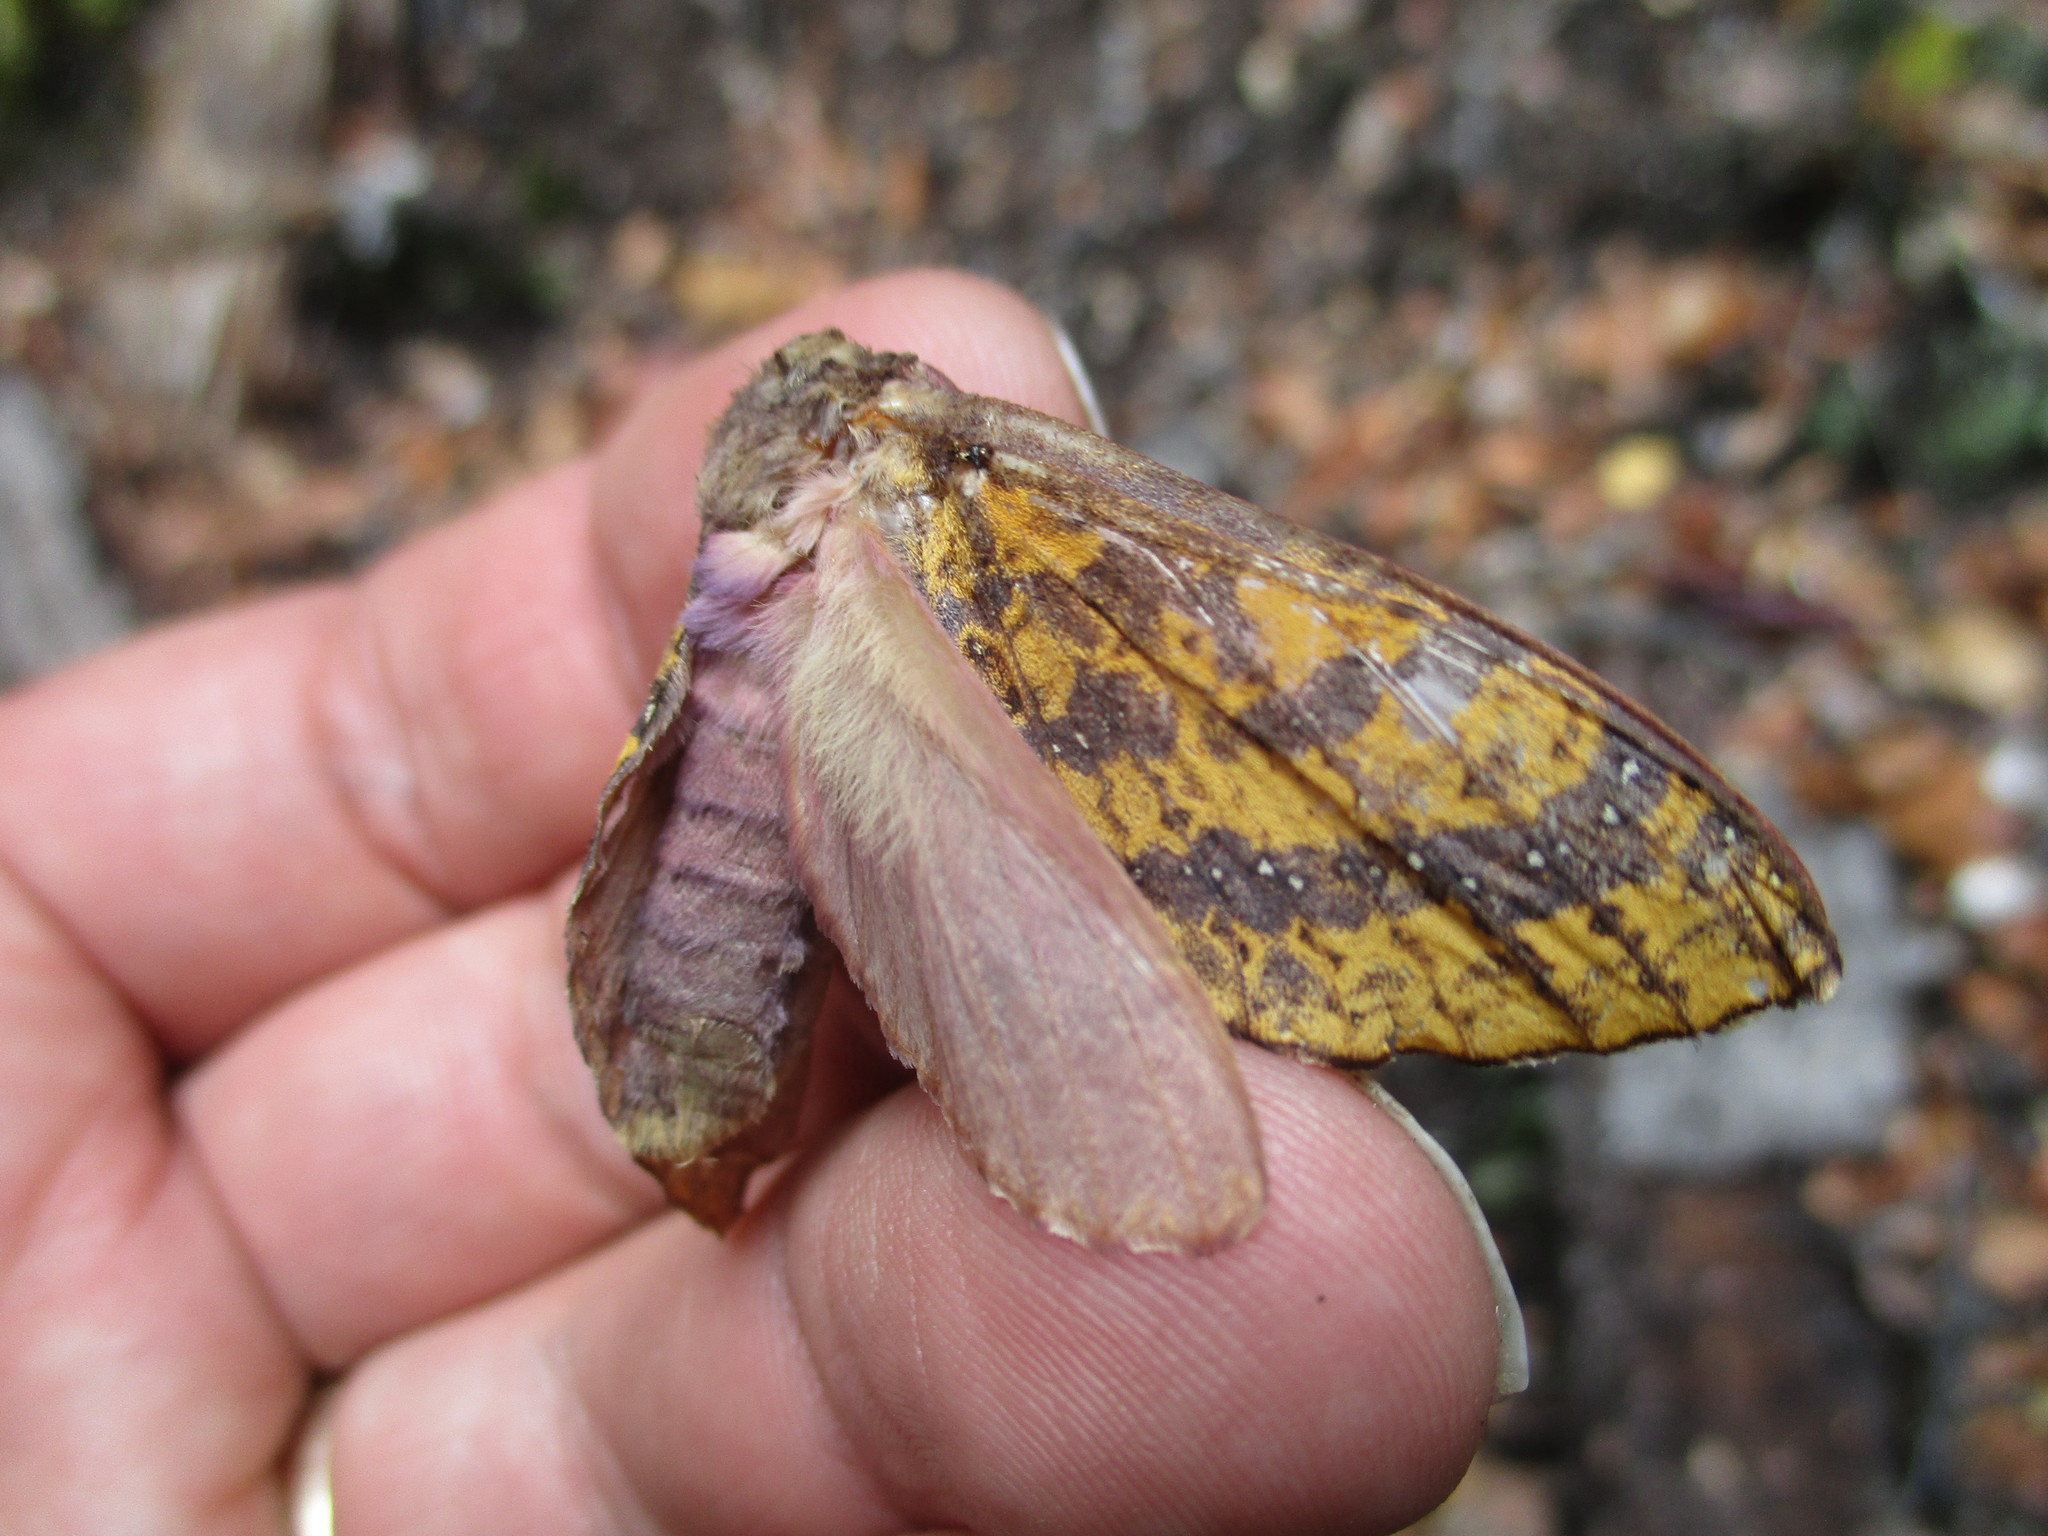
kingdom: Animalia
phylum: Arthropoda
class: Insecta
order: Lepidoptera
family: Hepialidae
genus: Dumbletonius
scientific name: Dumbletonius unimaculata
